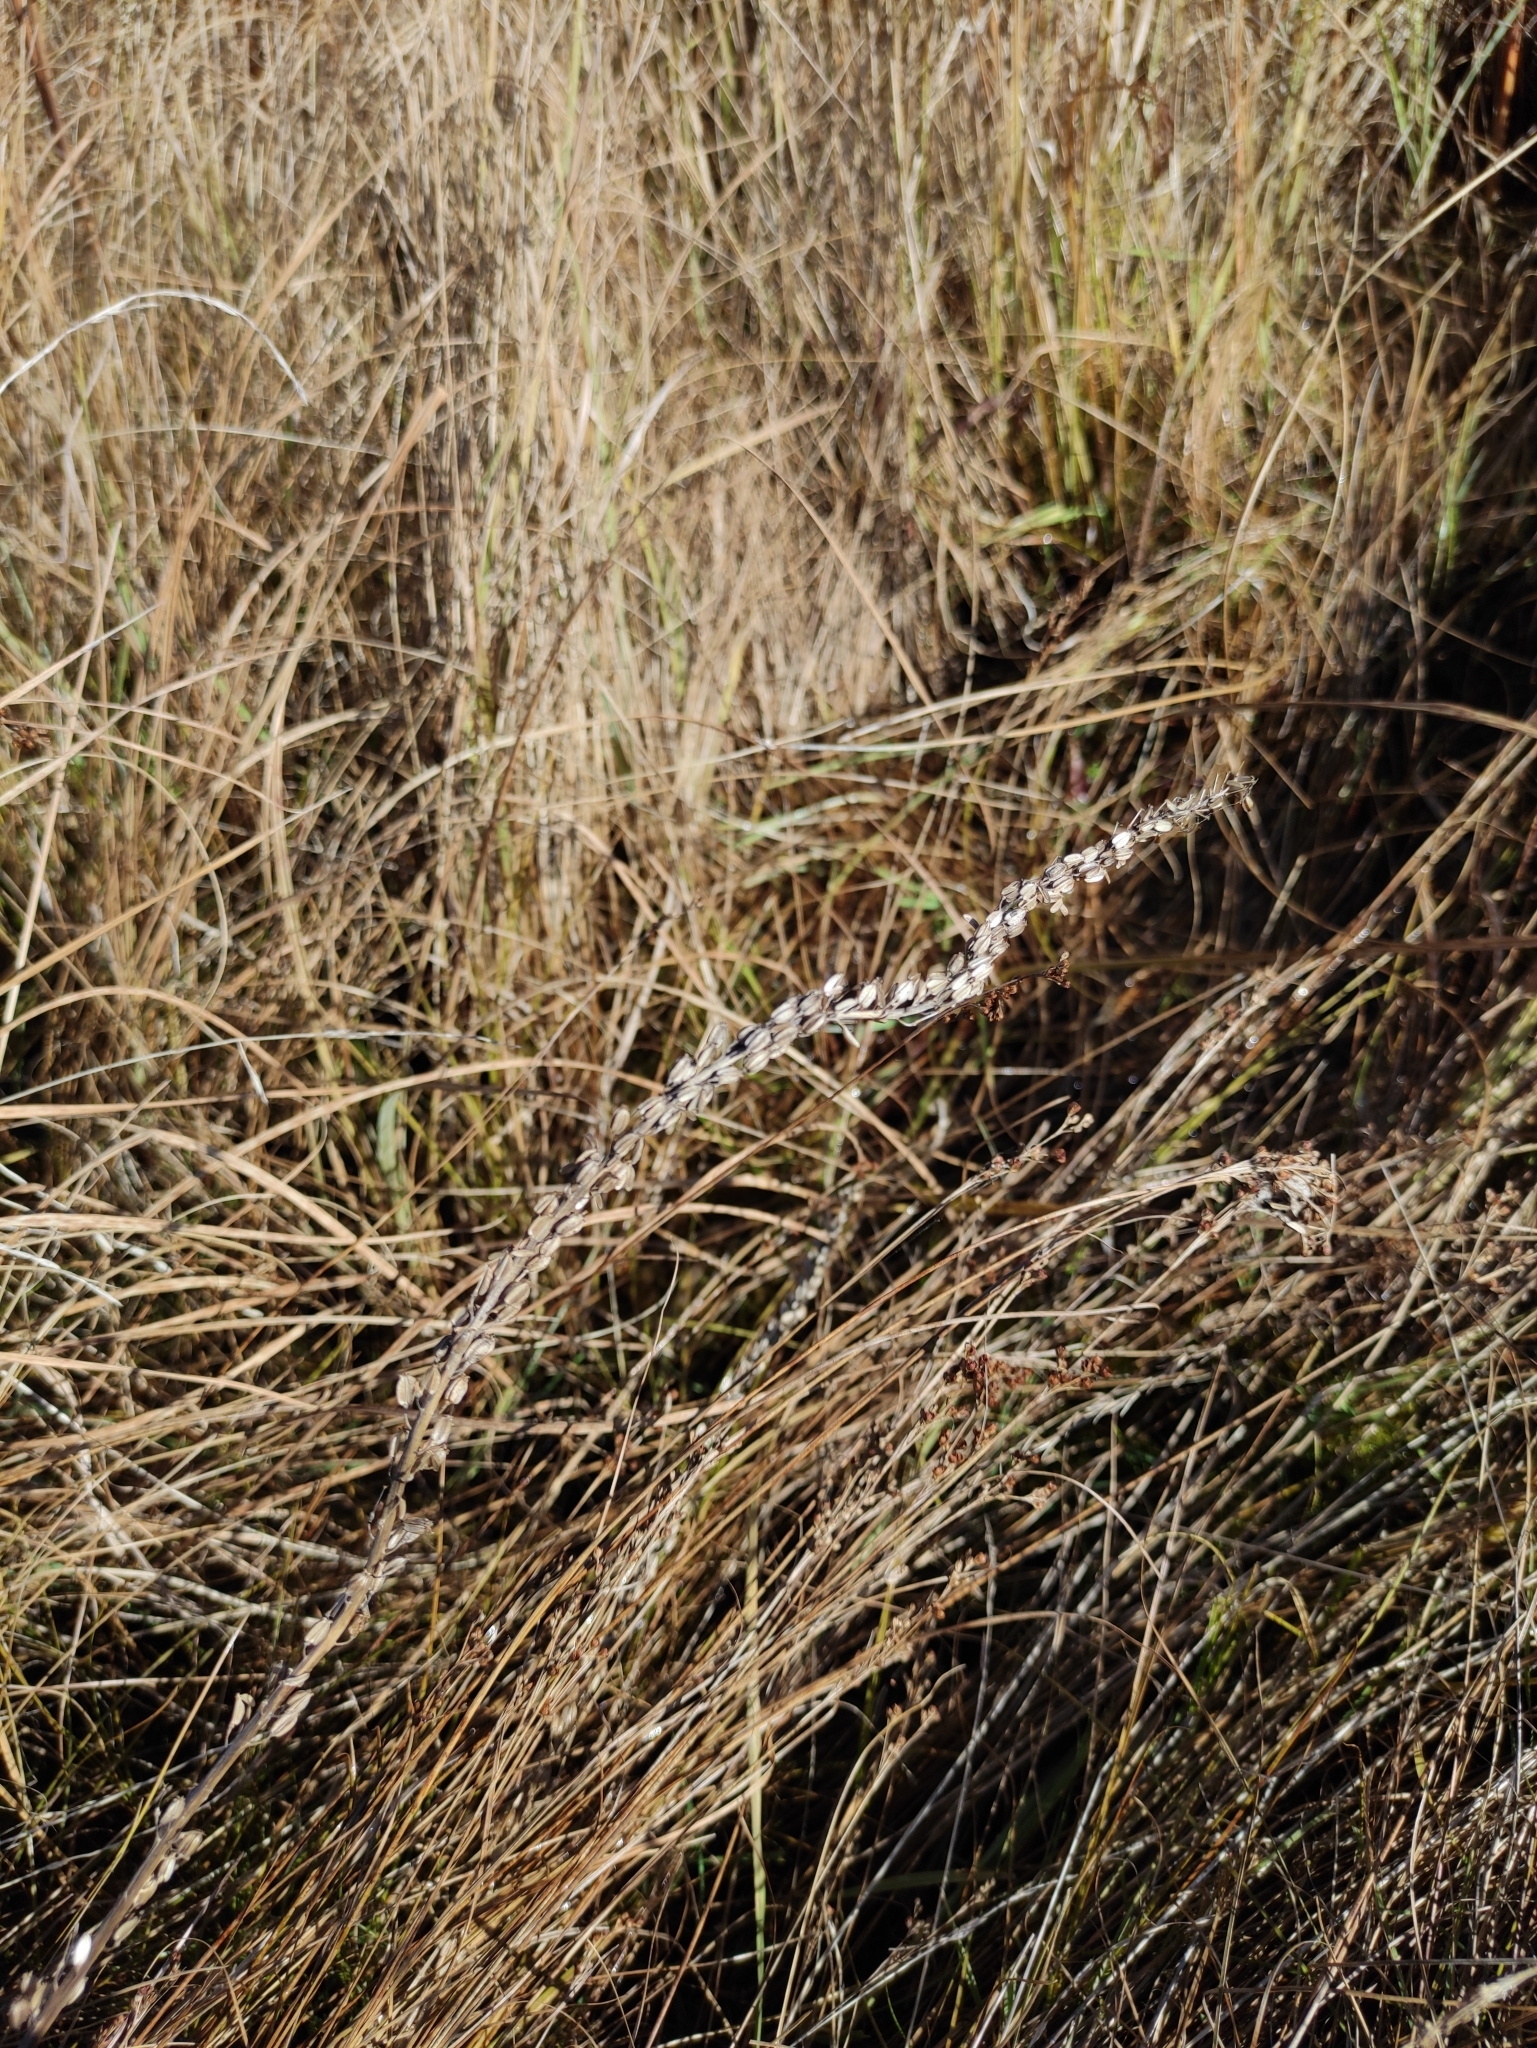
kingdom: Plantae
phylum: Tracheophyta
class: Liliopsida
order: Alismatales
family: Juncaginaceae
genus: Triglochin
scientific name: Triglochin maritima
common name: Sea arrowgrass
